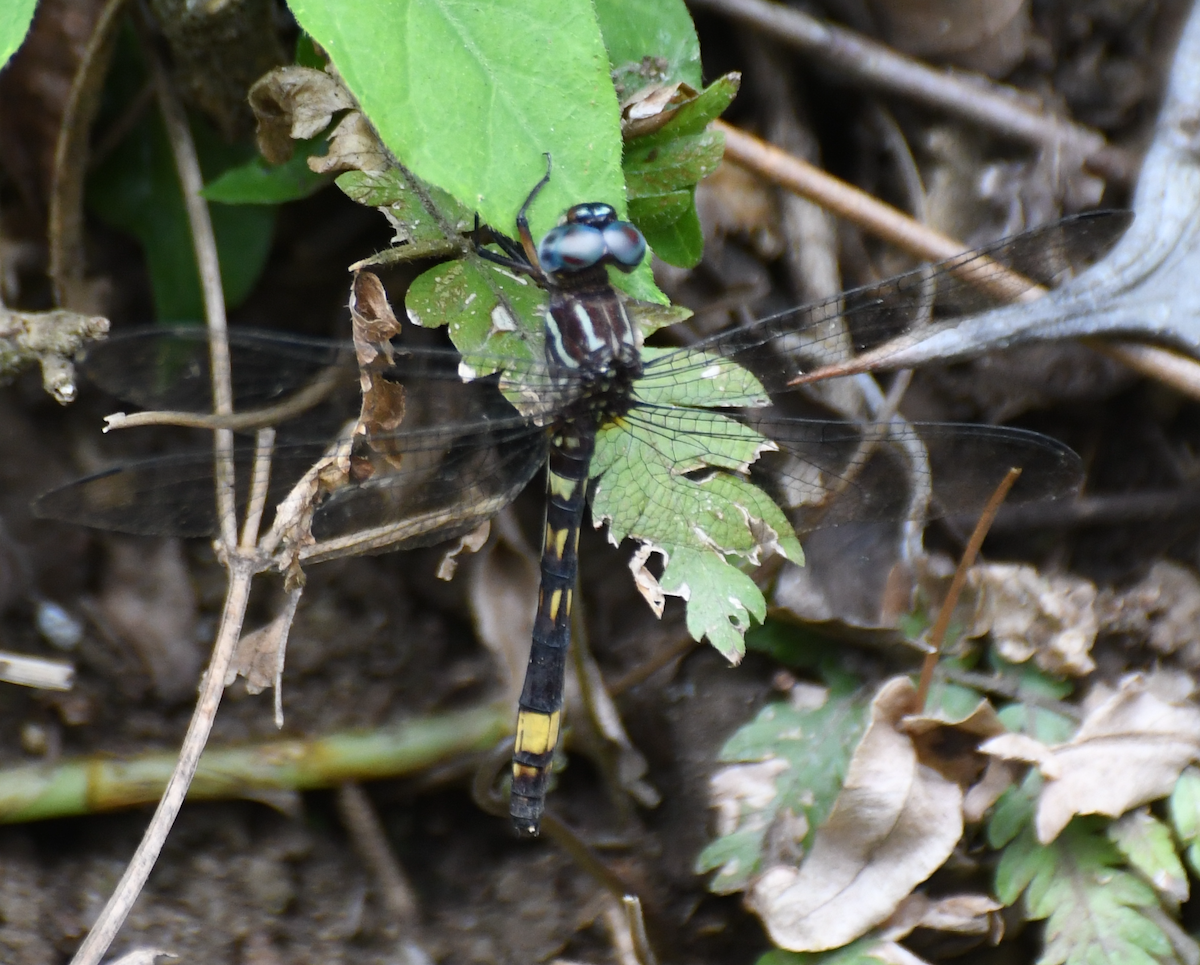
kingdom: Animalia
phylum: Arthropoda
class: Insecta
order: Odonata
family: Libellulidae
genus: Brechmorhoga
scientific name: Brechmorhoga rapax
